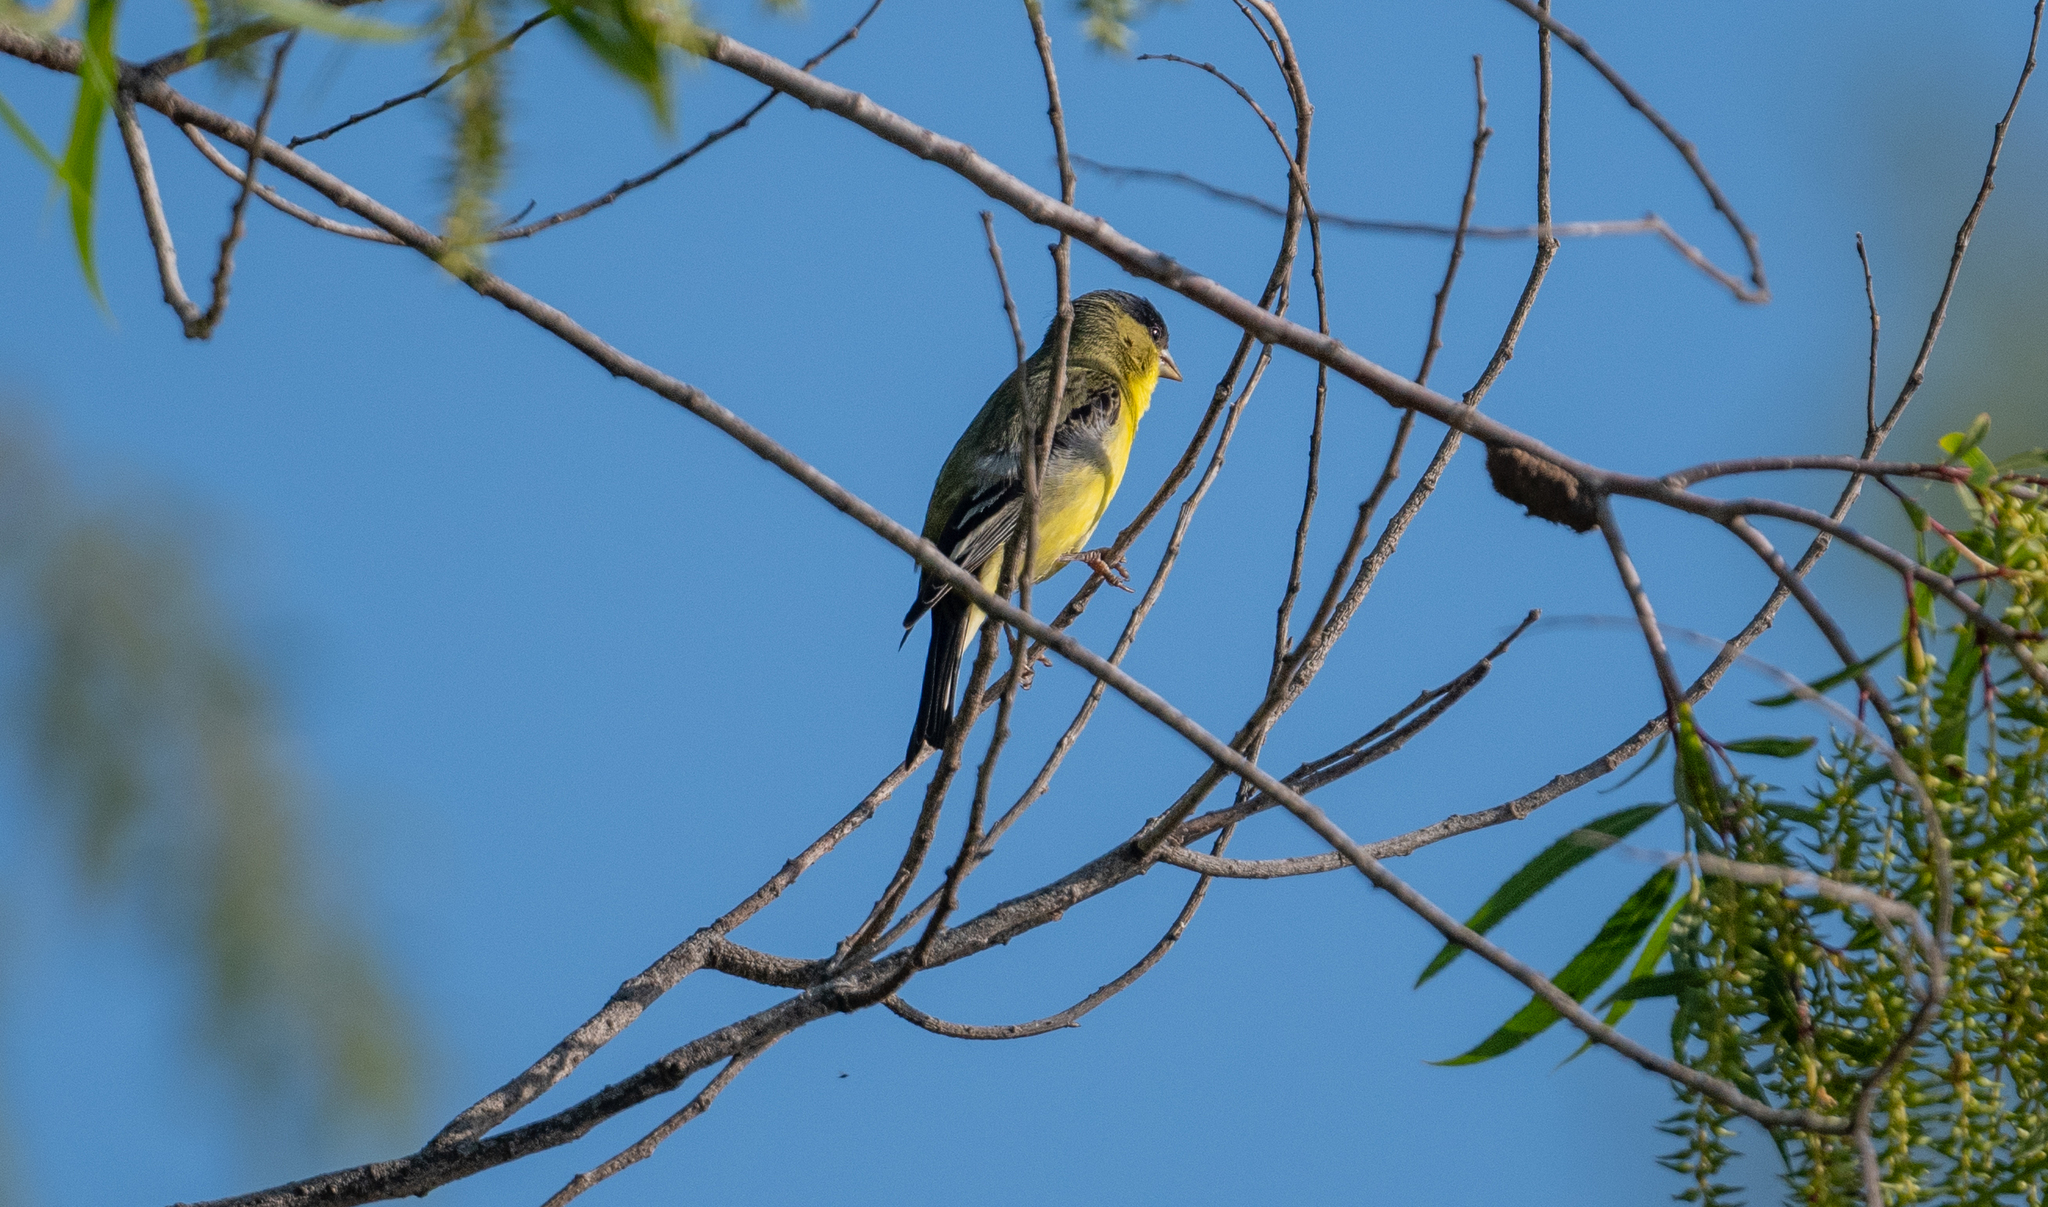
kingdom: Animalia
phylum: Chordata
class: Aves
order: Passeriformes
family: Fringillidae
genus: Spinus
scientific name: Spinus psaltria
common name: Lesser goldfinch
